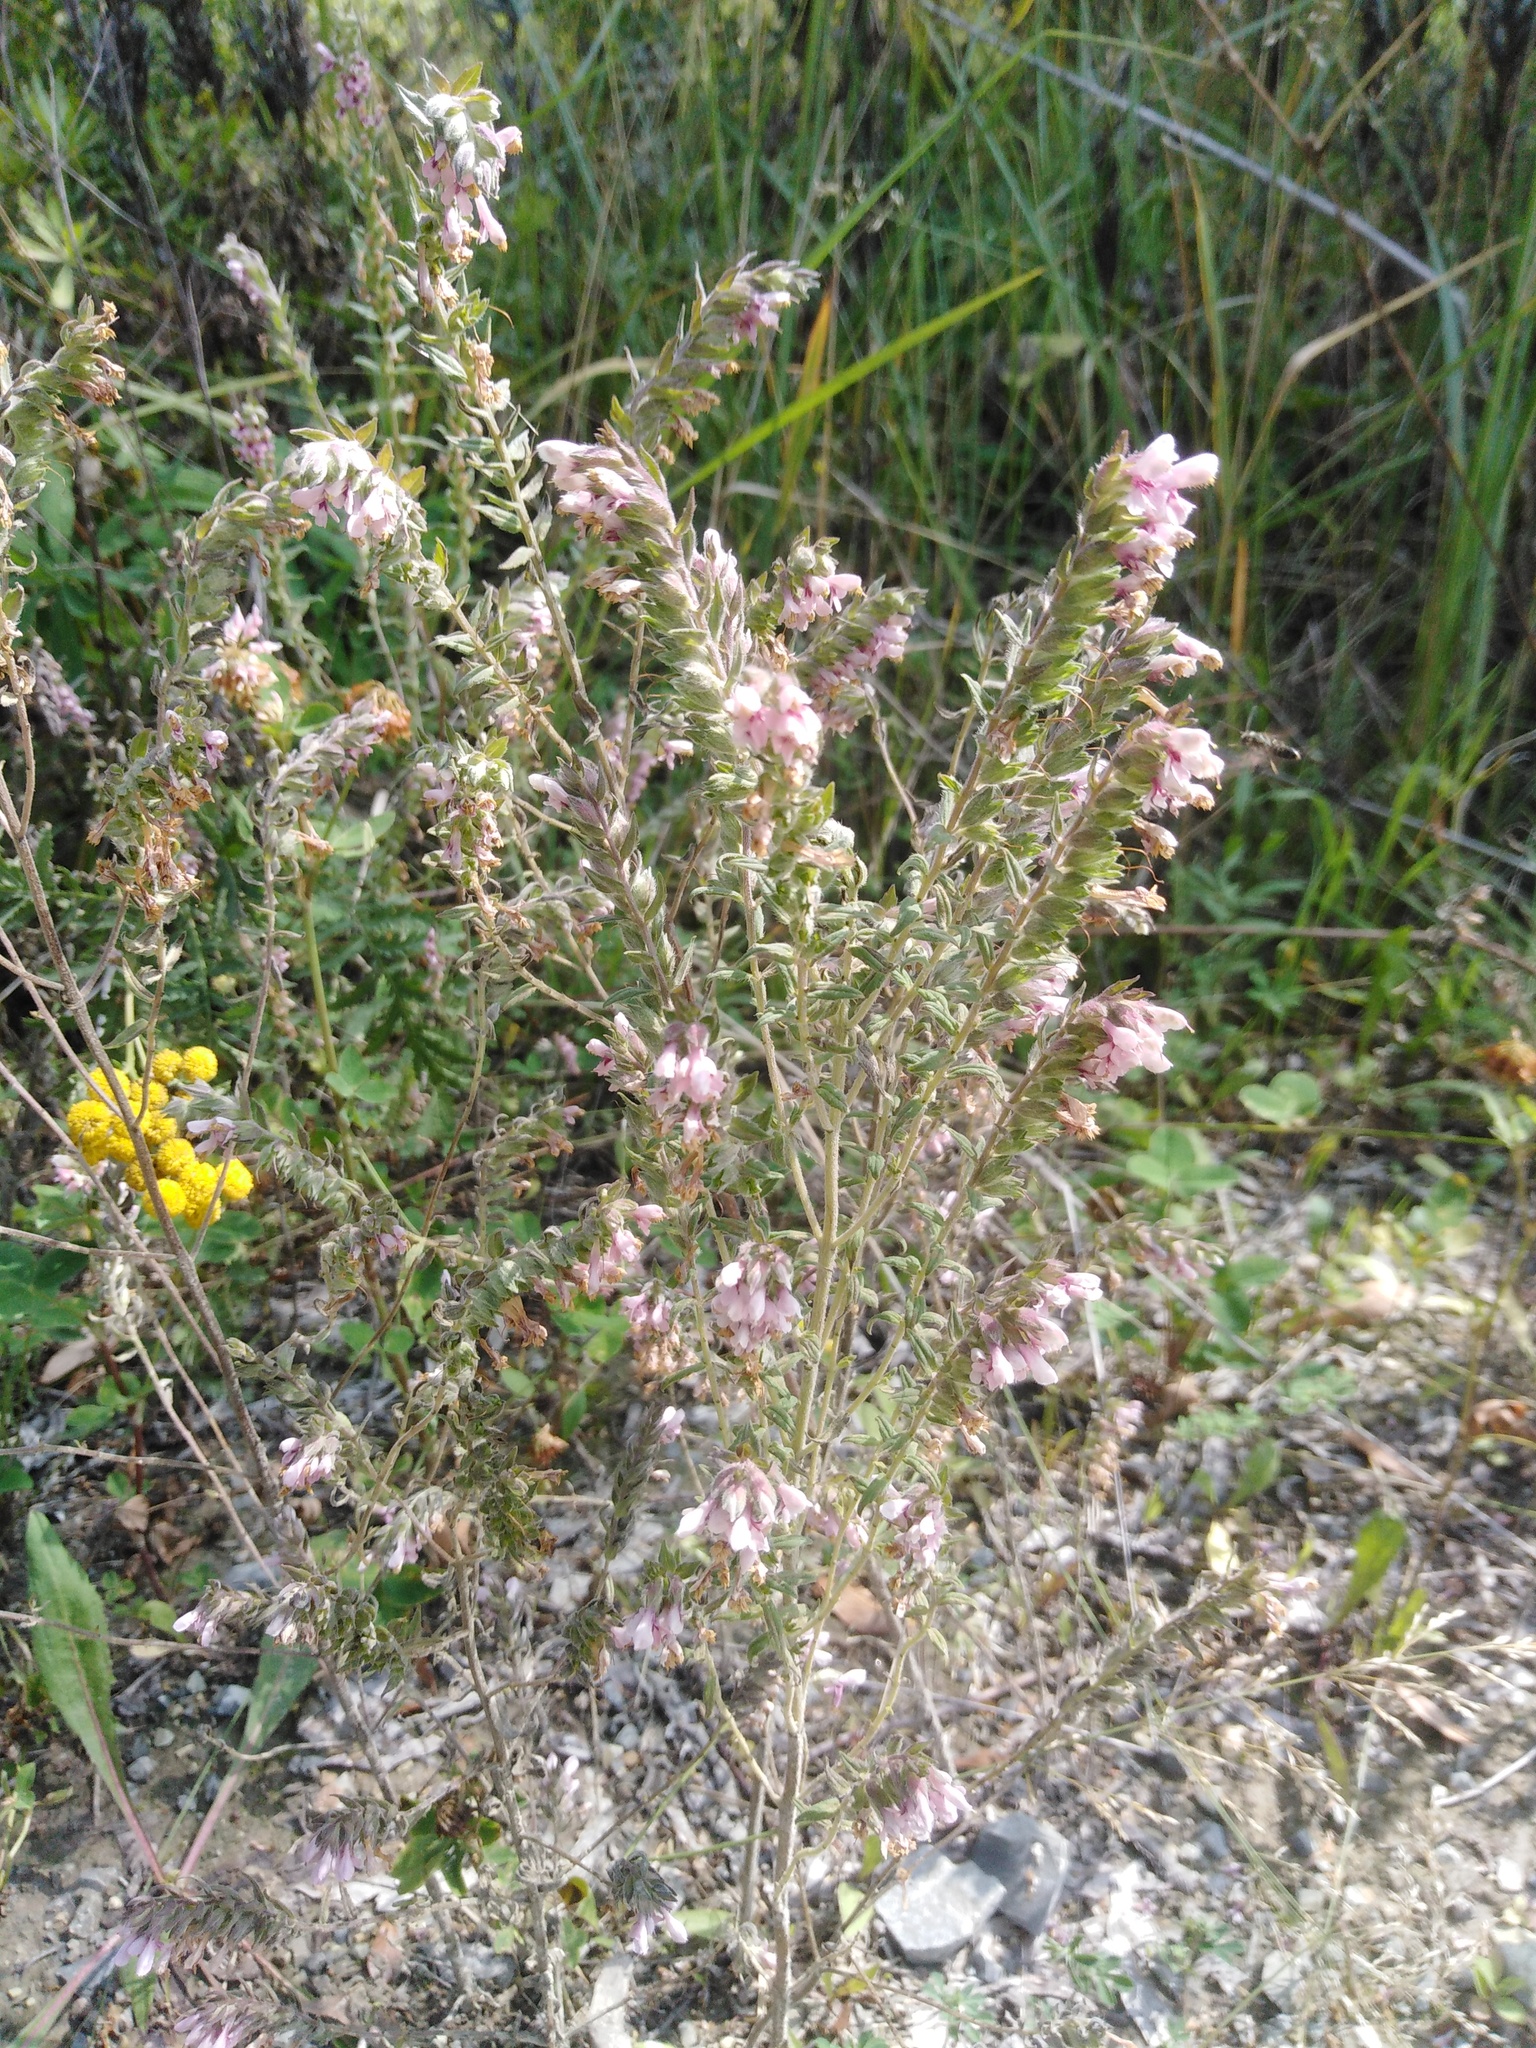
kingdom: Plantae
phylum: Tracheophyta
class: Magnoliopsida
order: Lamiales
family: Orobanchaceae
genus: Odontites
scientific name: Odontites vulgaris
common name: Broomrape
